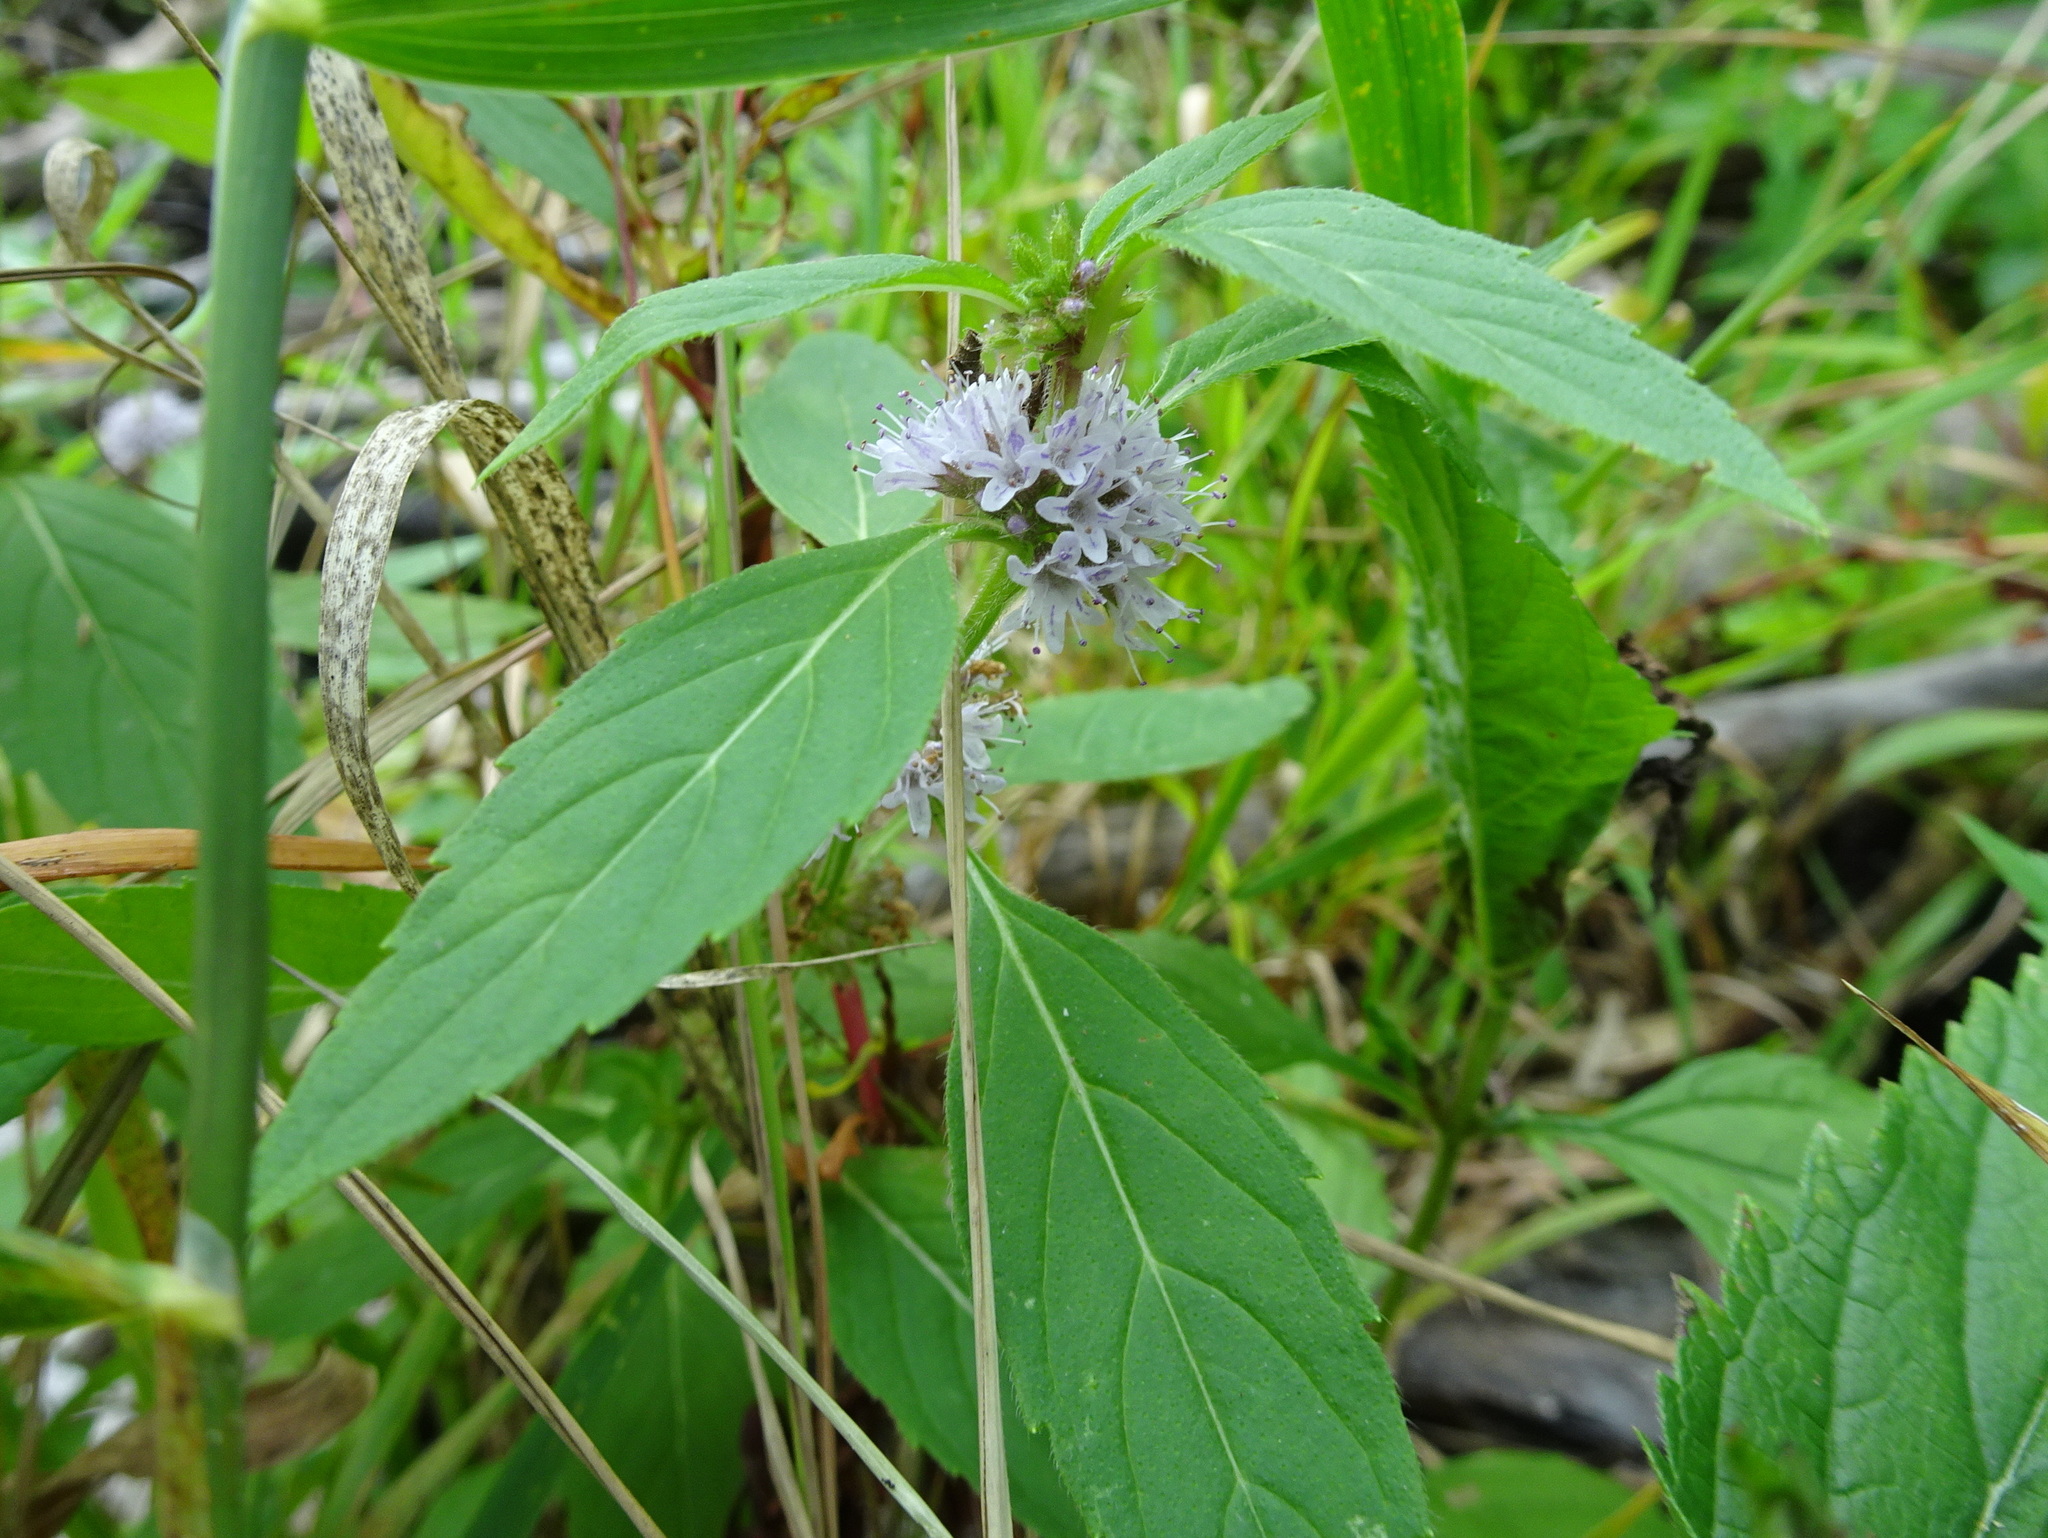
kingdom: Plantae
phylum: Tracheophyta
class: Magnoliopsida
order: Lamiales
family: Lamiaceae
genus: Mentha
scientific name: Mentha canadensis
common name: American corn mint
